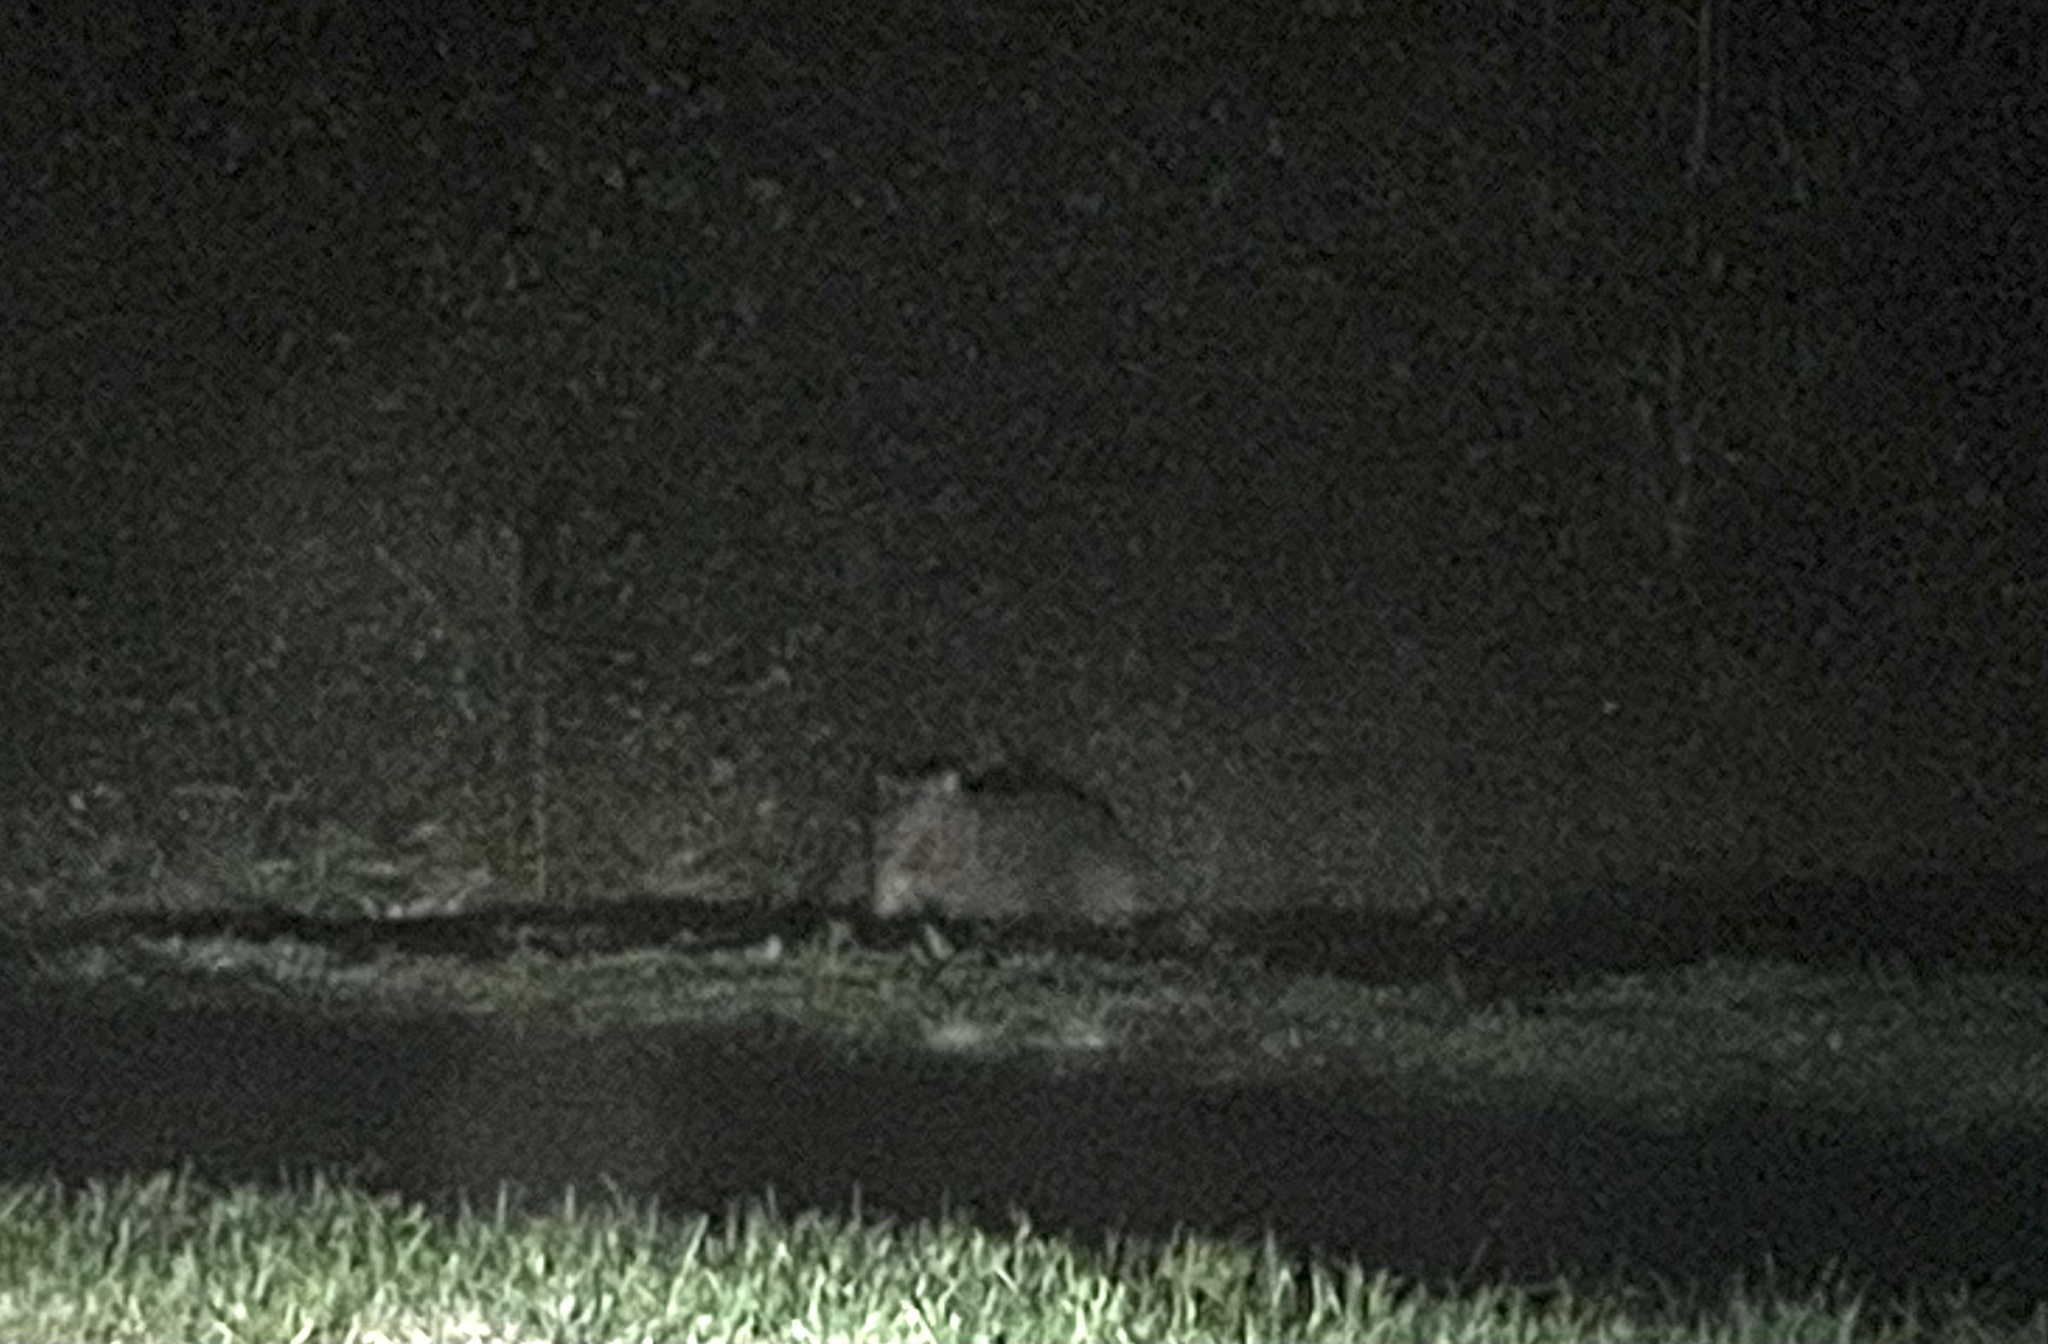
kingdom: Animalia
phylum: Chordata
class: Mammalia
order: Diprotodontia
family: Vombatidae
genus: Vombatus
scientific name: Vombatus ursinus
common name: Common wombat
